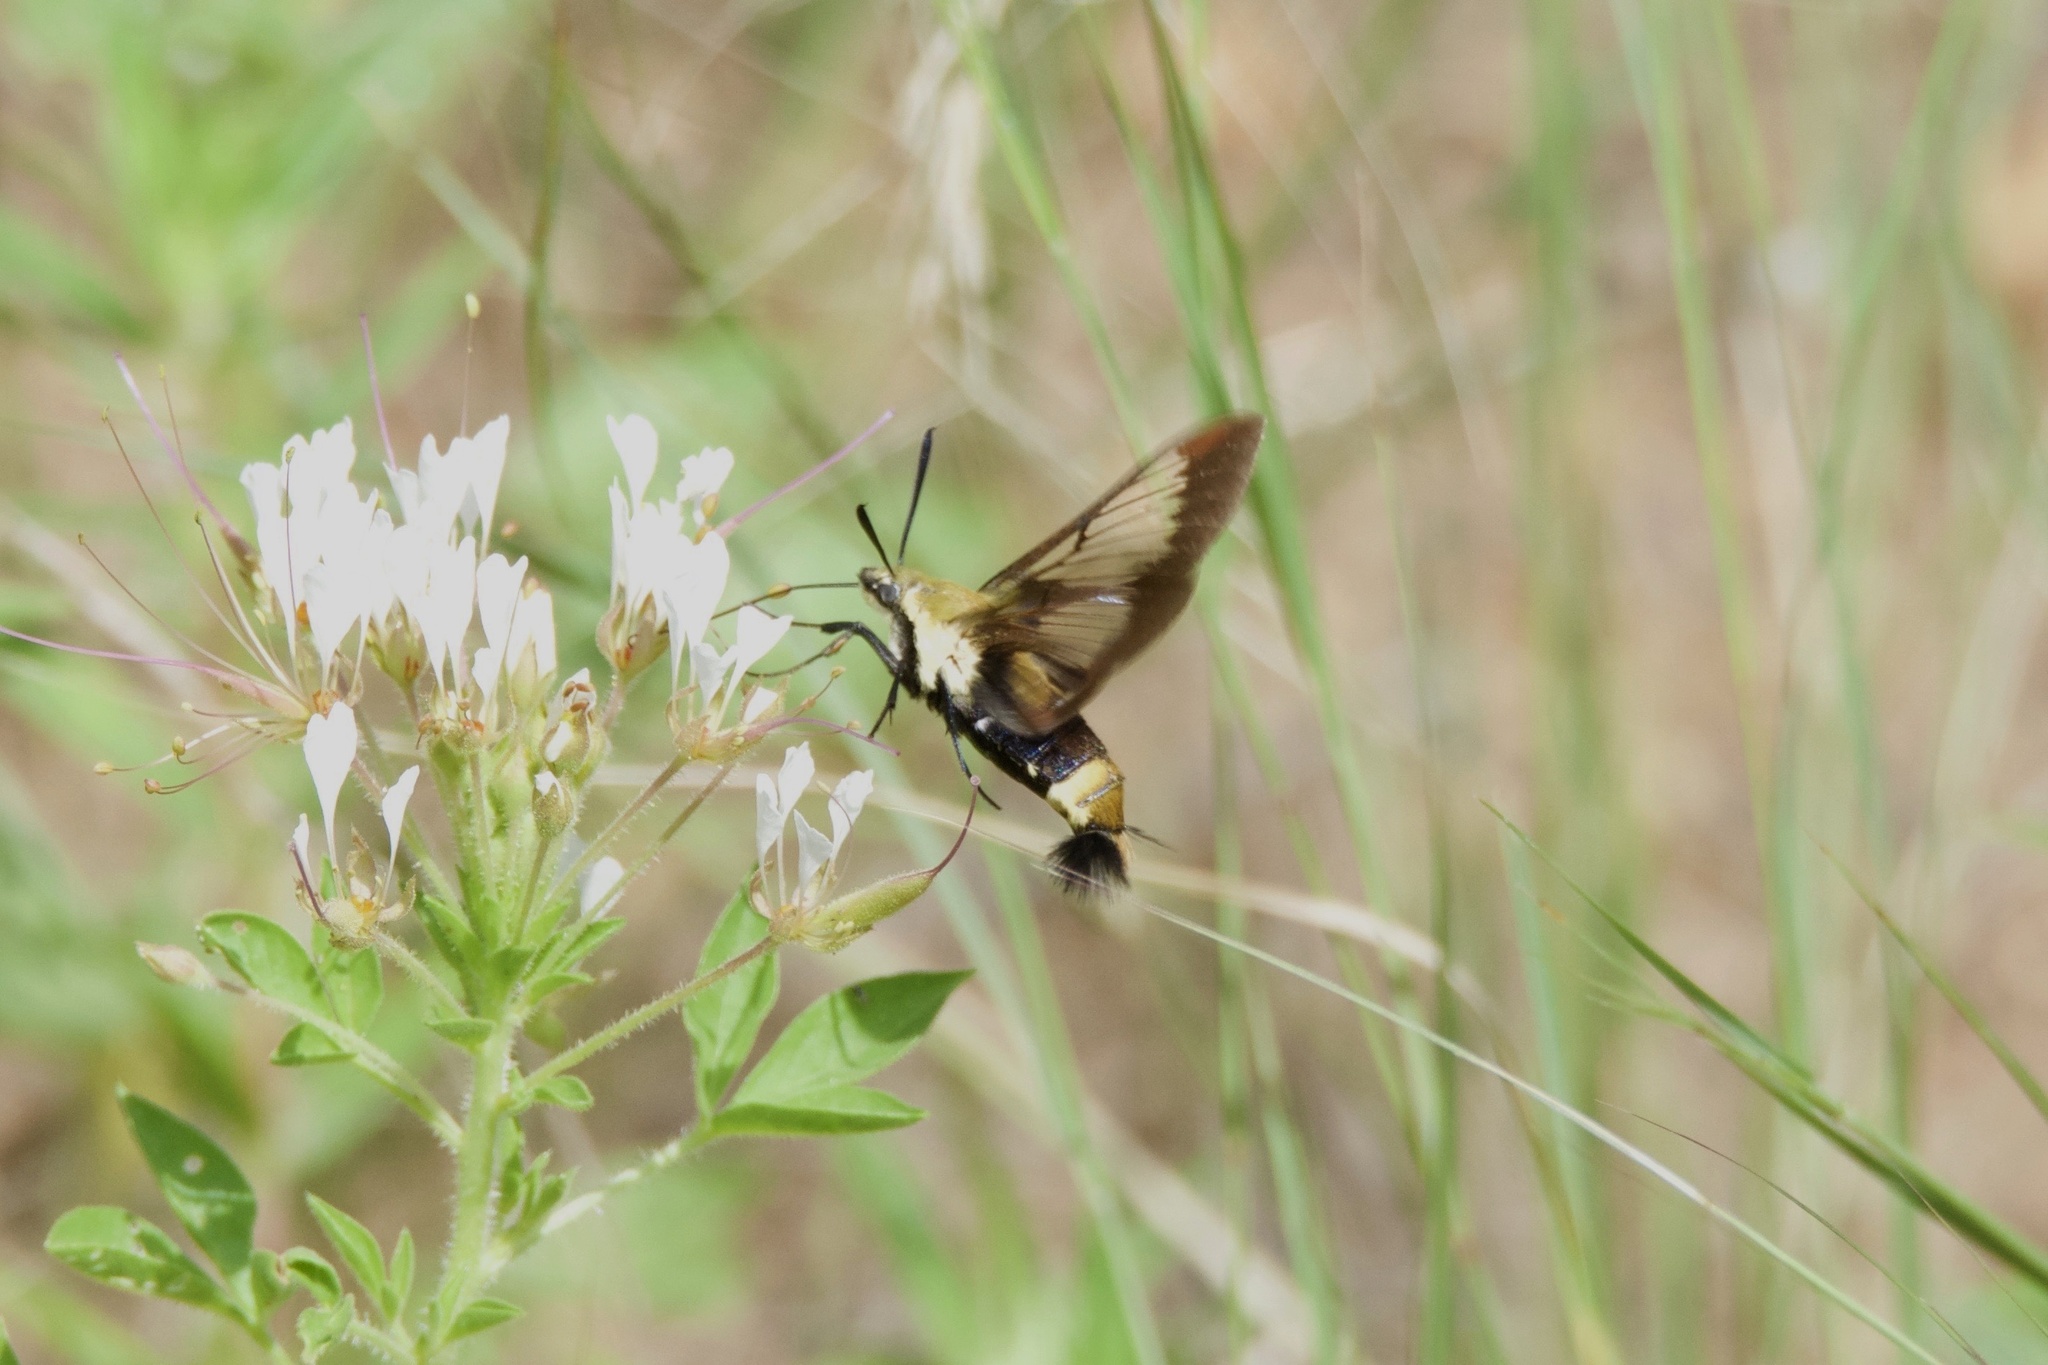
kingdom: Animalia
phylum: Arthropoda
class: Insecta
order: Lepidoptera
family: Sphingidae
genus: Hemaris
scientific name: Hemaris diffinis
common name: Bumblebee moth
